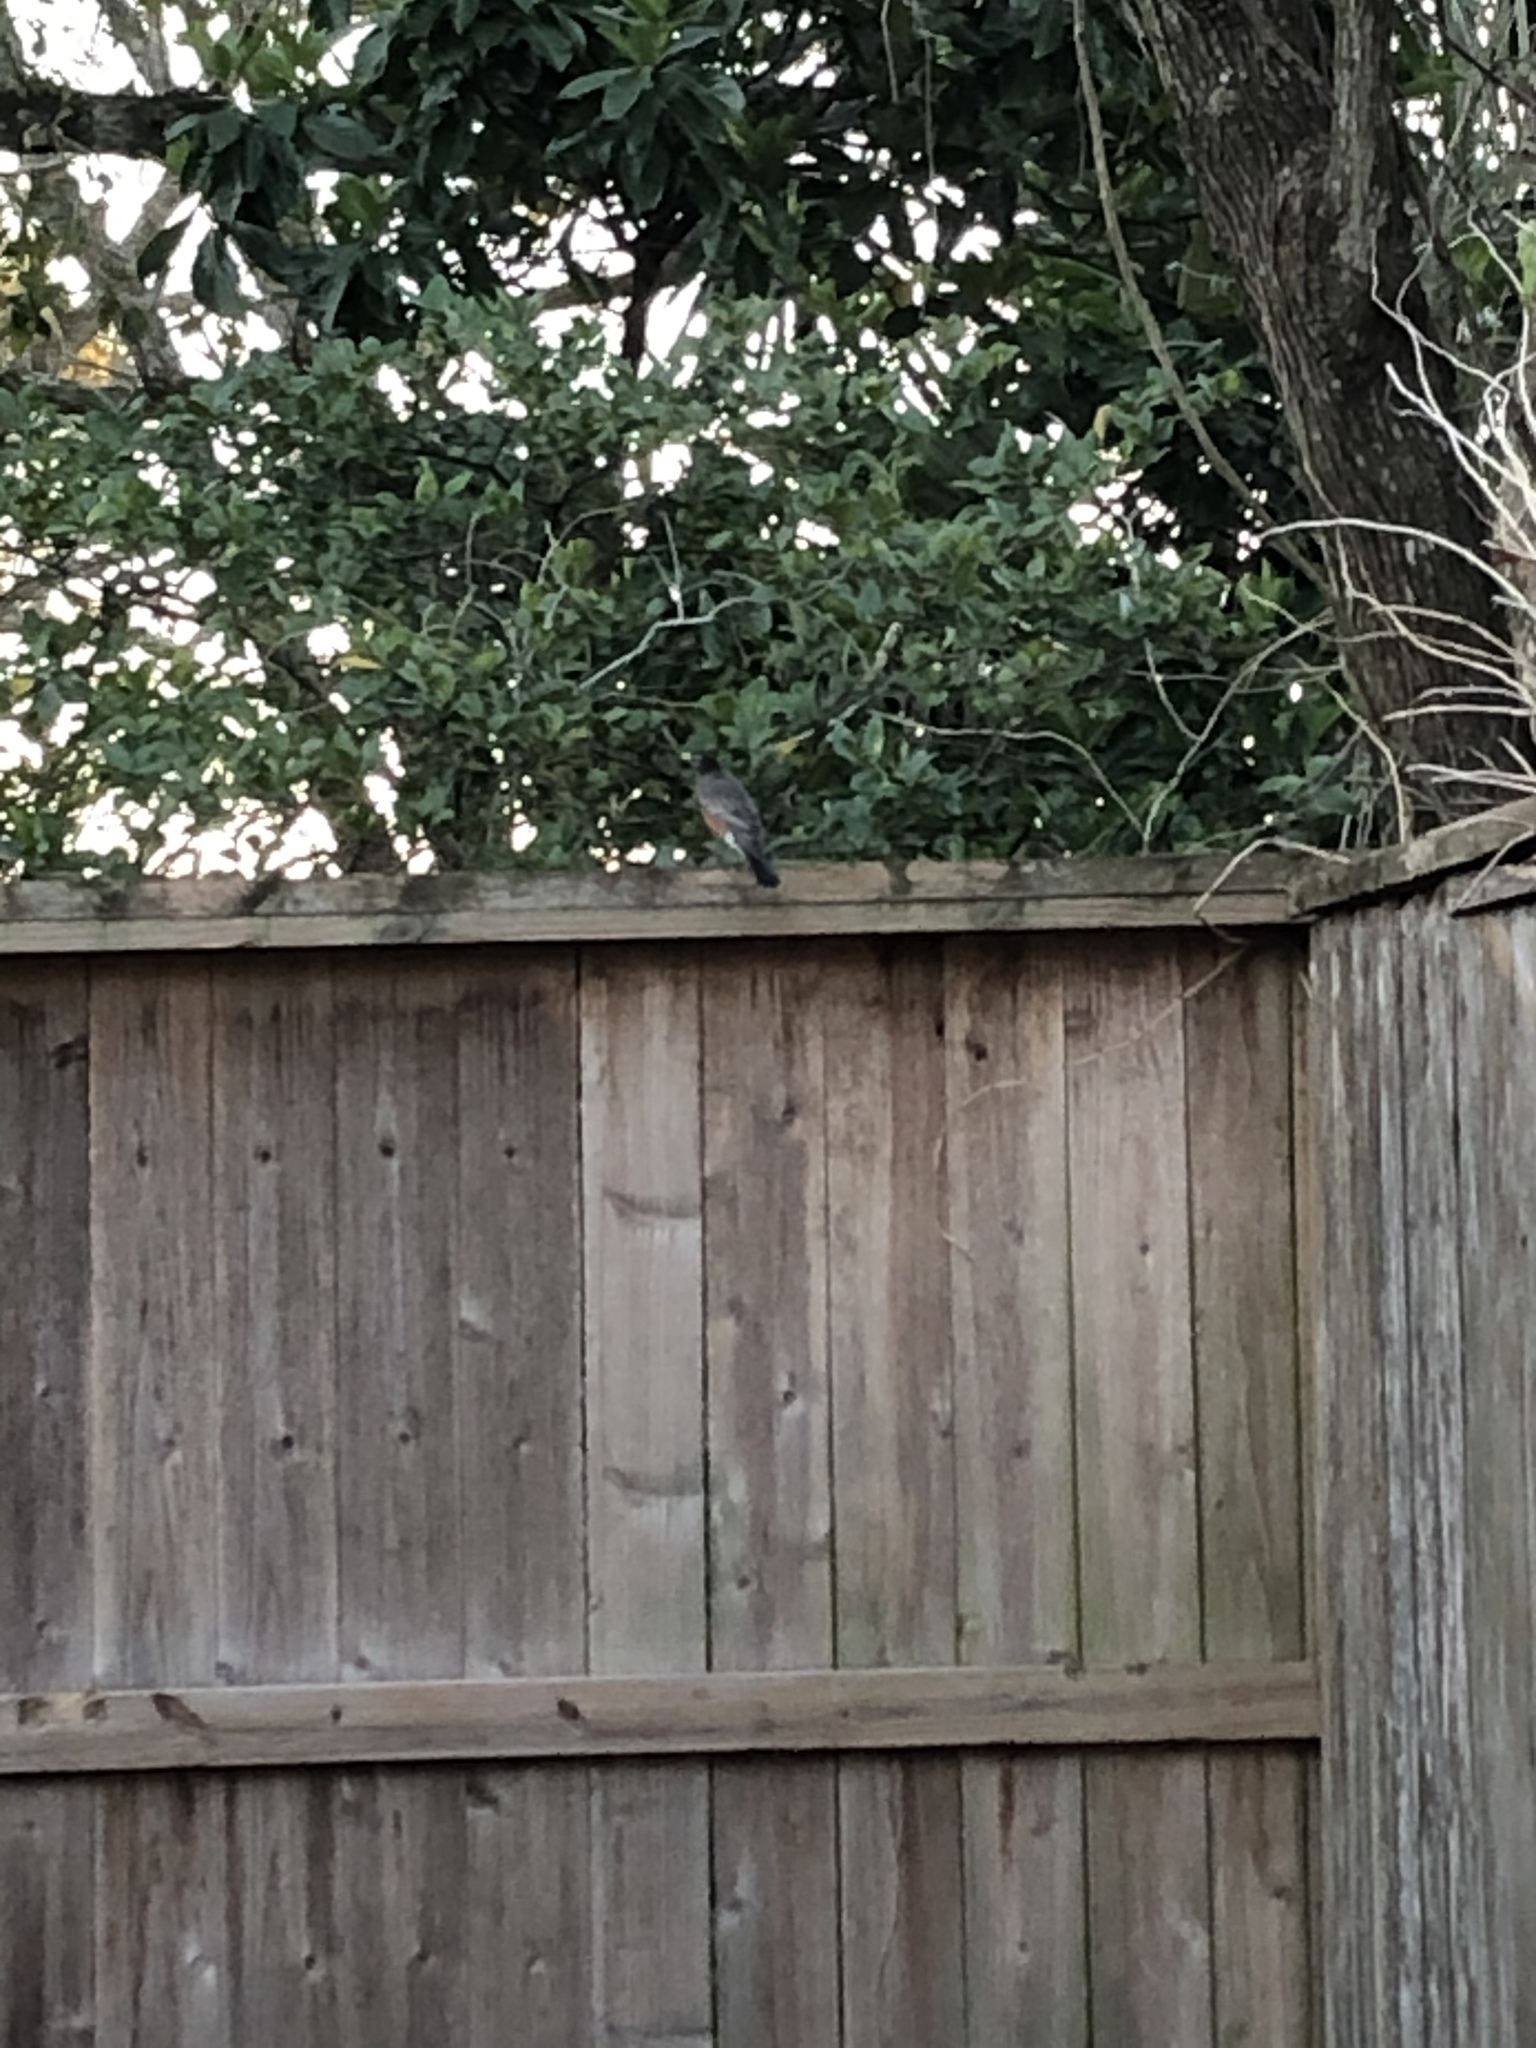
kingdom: Animalia
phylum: Chordata
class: Aves
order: Passeriformes
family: Turdidae
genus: Turdus
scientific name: Turdus migratorius
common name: American robin
